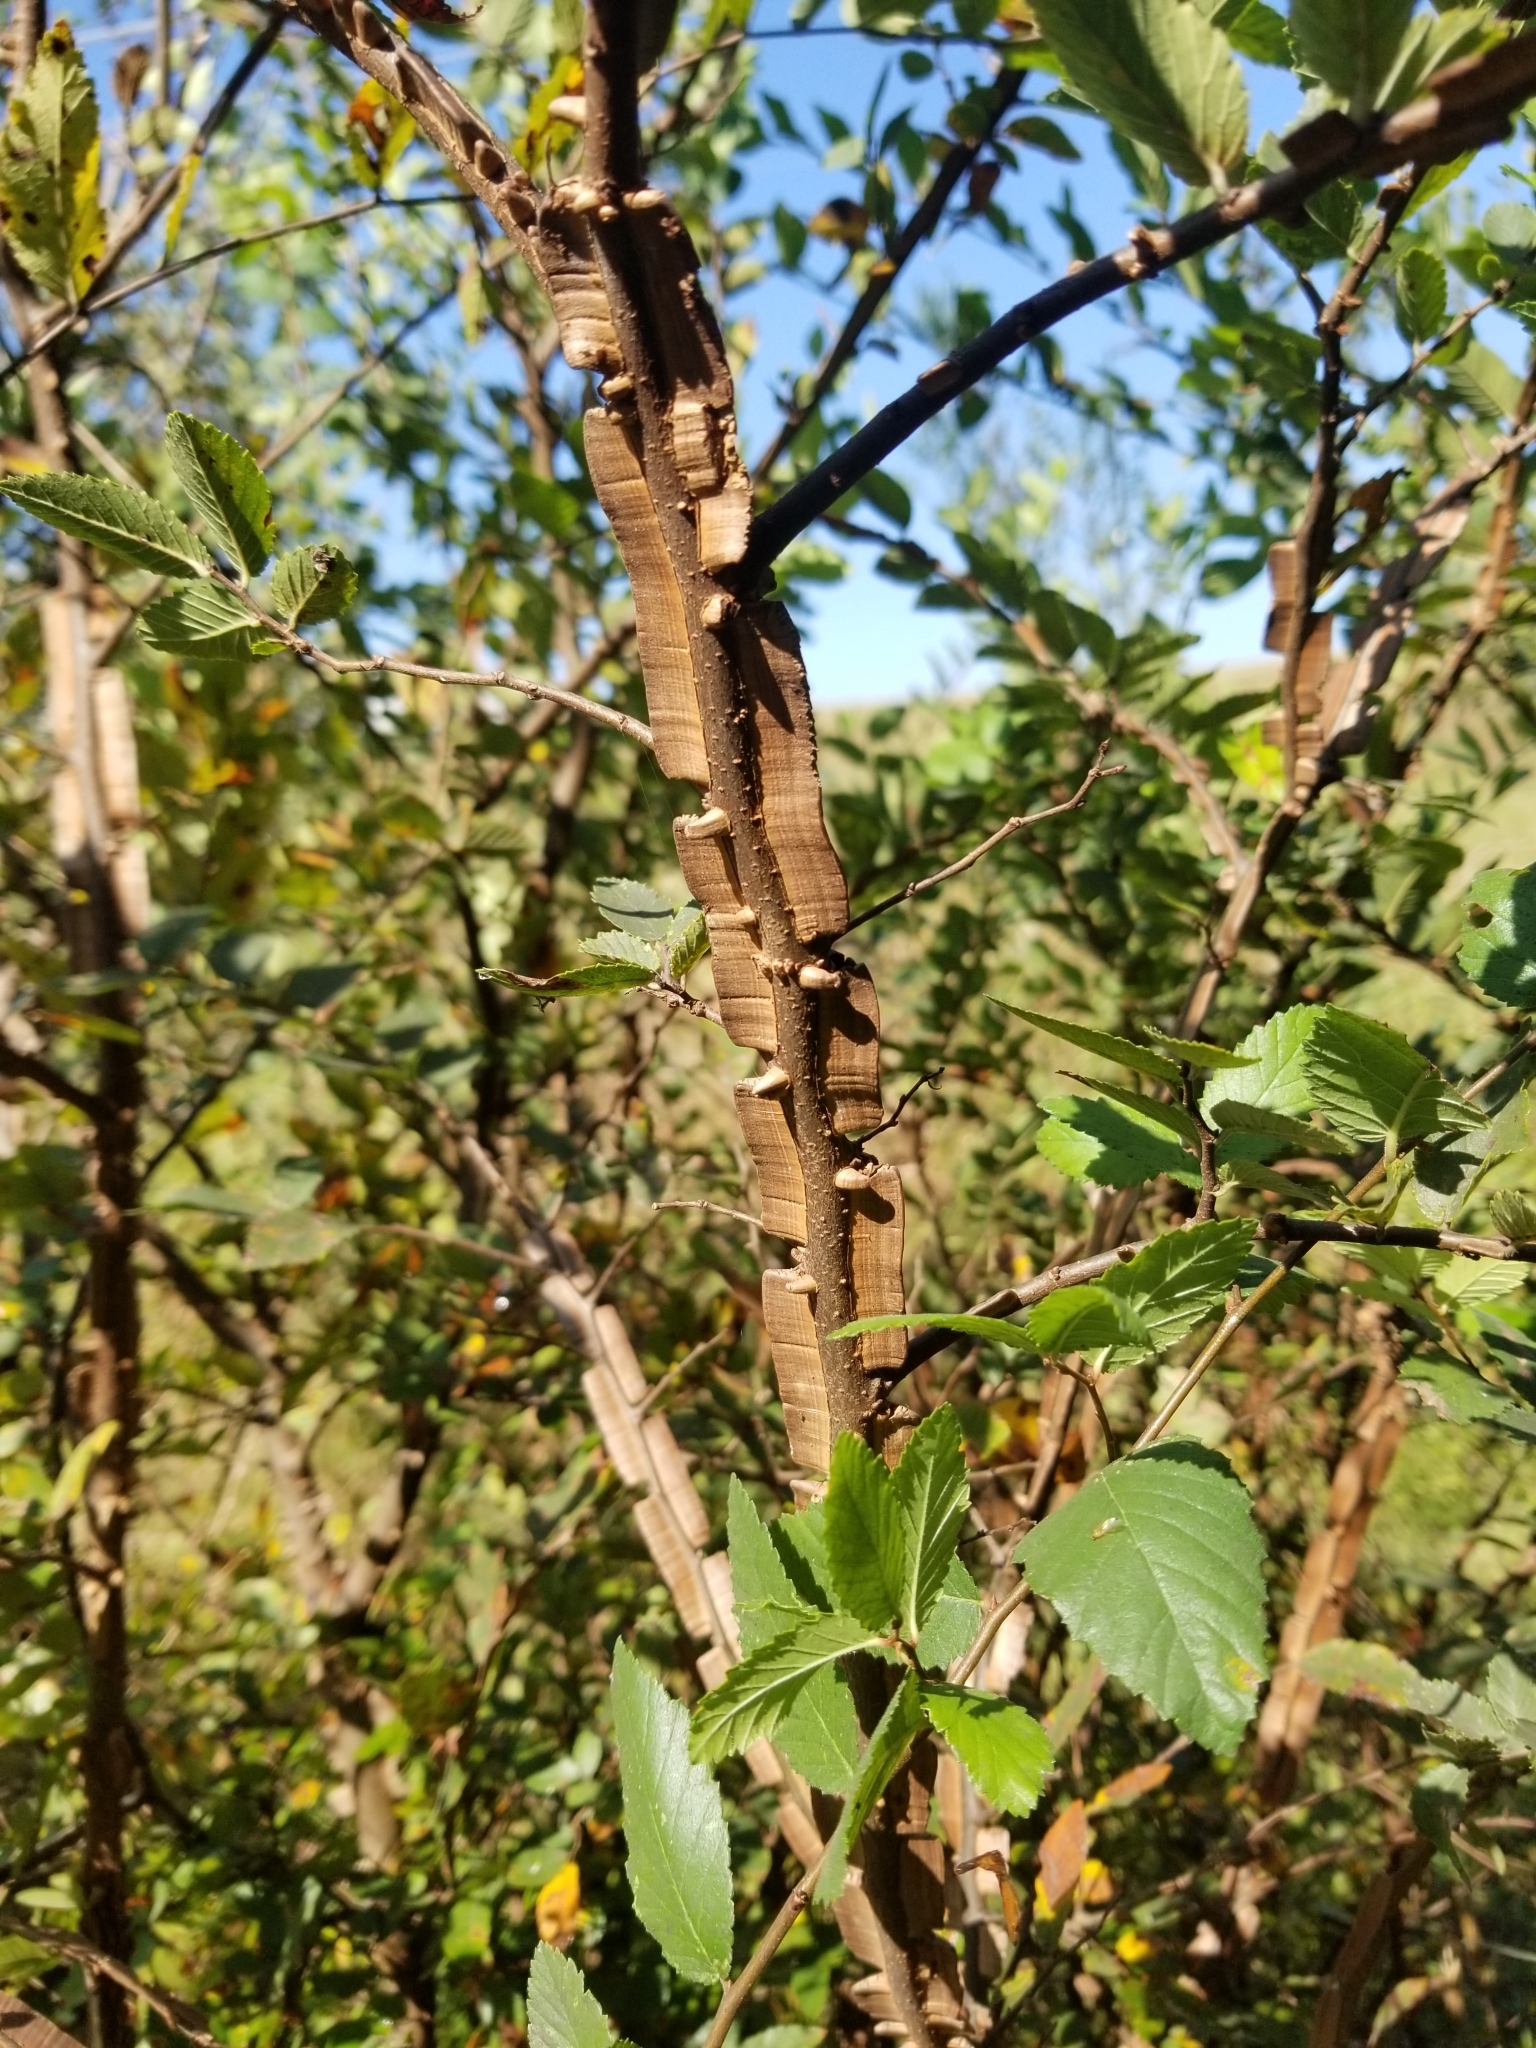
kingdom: Plantae
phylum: Tracheophyta
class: Magnoliopsida
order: Rosales
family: Ulmaceae
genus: Ulmus
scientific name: Ulmus crassifolia
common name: Basket elm
